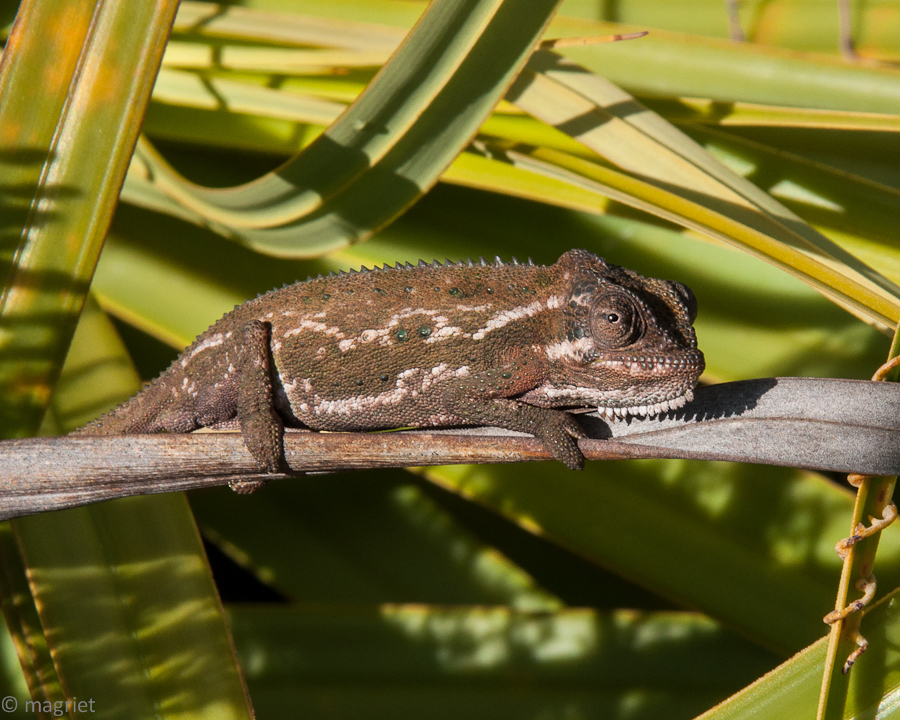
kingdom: Animalia
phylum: Chordata
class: Squamata
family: Chamaeleonidae
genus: Bradypodion
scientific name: Bradypodion pumilum
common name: Cape dwarf chameleon
